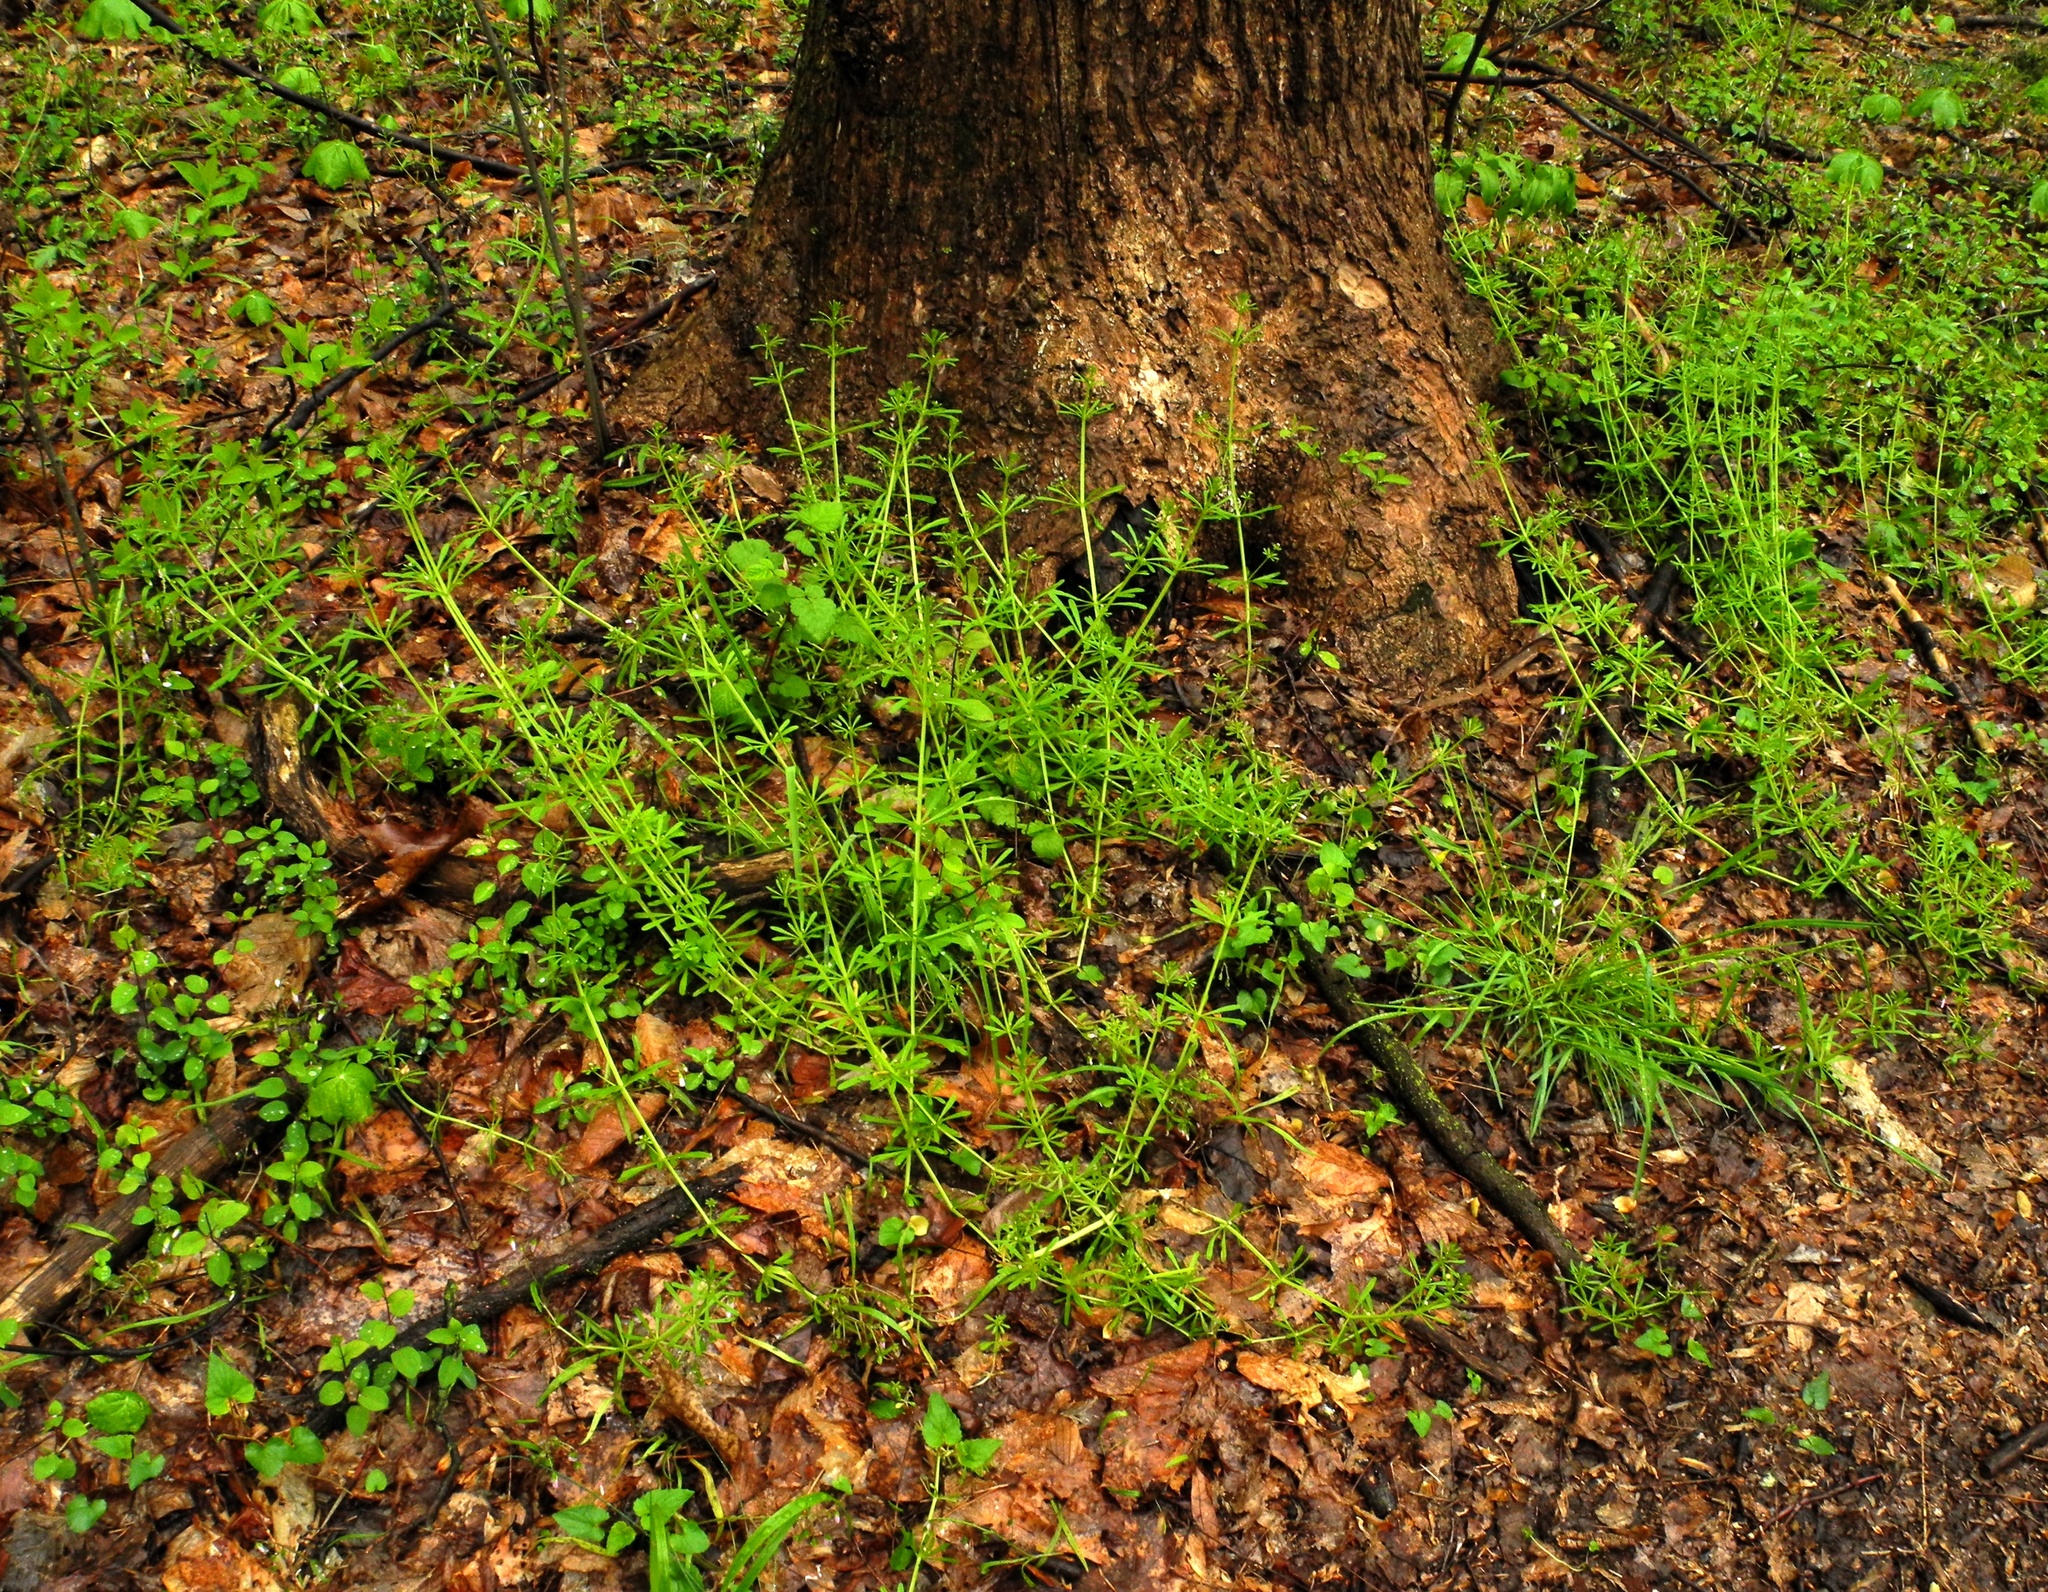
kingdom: Plantae
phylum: Tracheophyta
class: Magnoliopsida
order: Gentianales
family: Rubiaceae
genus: Galium
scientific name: Galium aparine
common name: Cleavers
